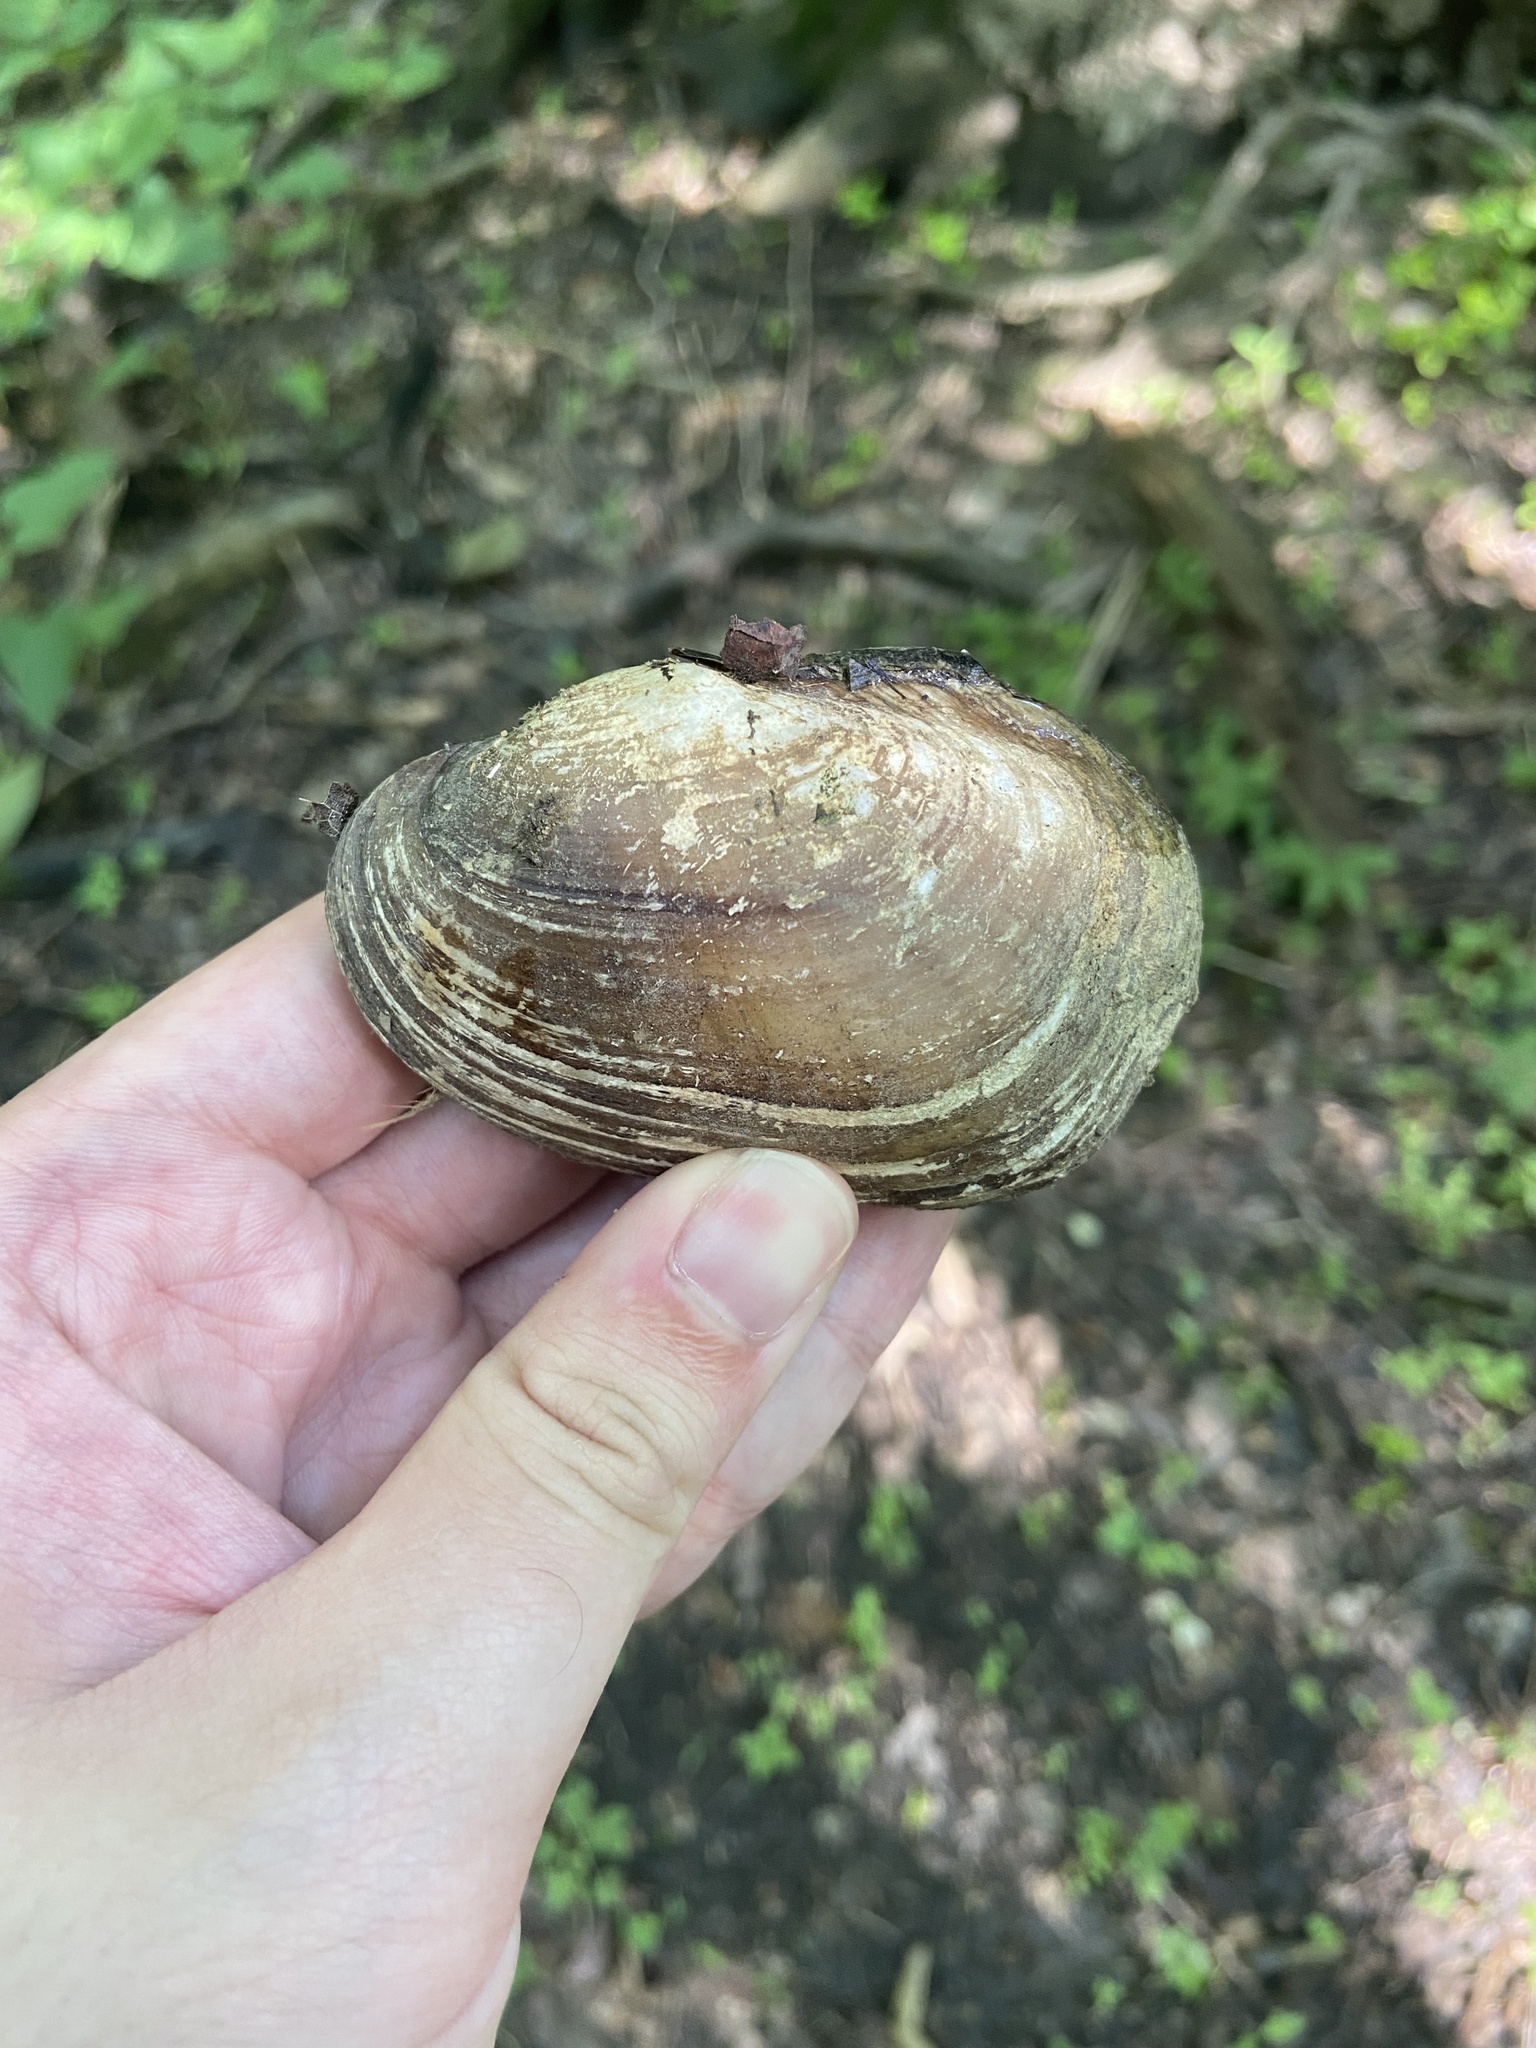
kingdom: Animalia
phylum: Mollusca
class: Bivalvia
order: Unionida
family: Unionidae
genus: Lampsilis
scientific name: Lampsilis siliquoidea
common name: Fatmucket
